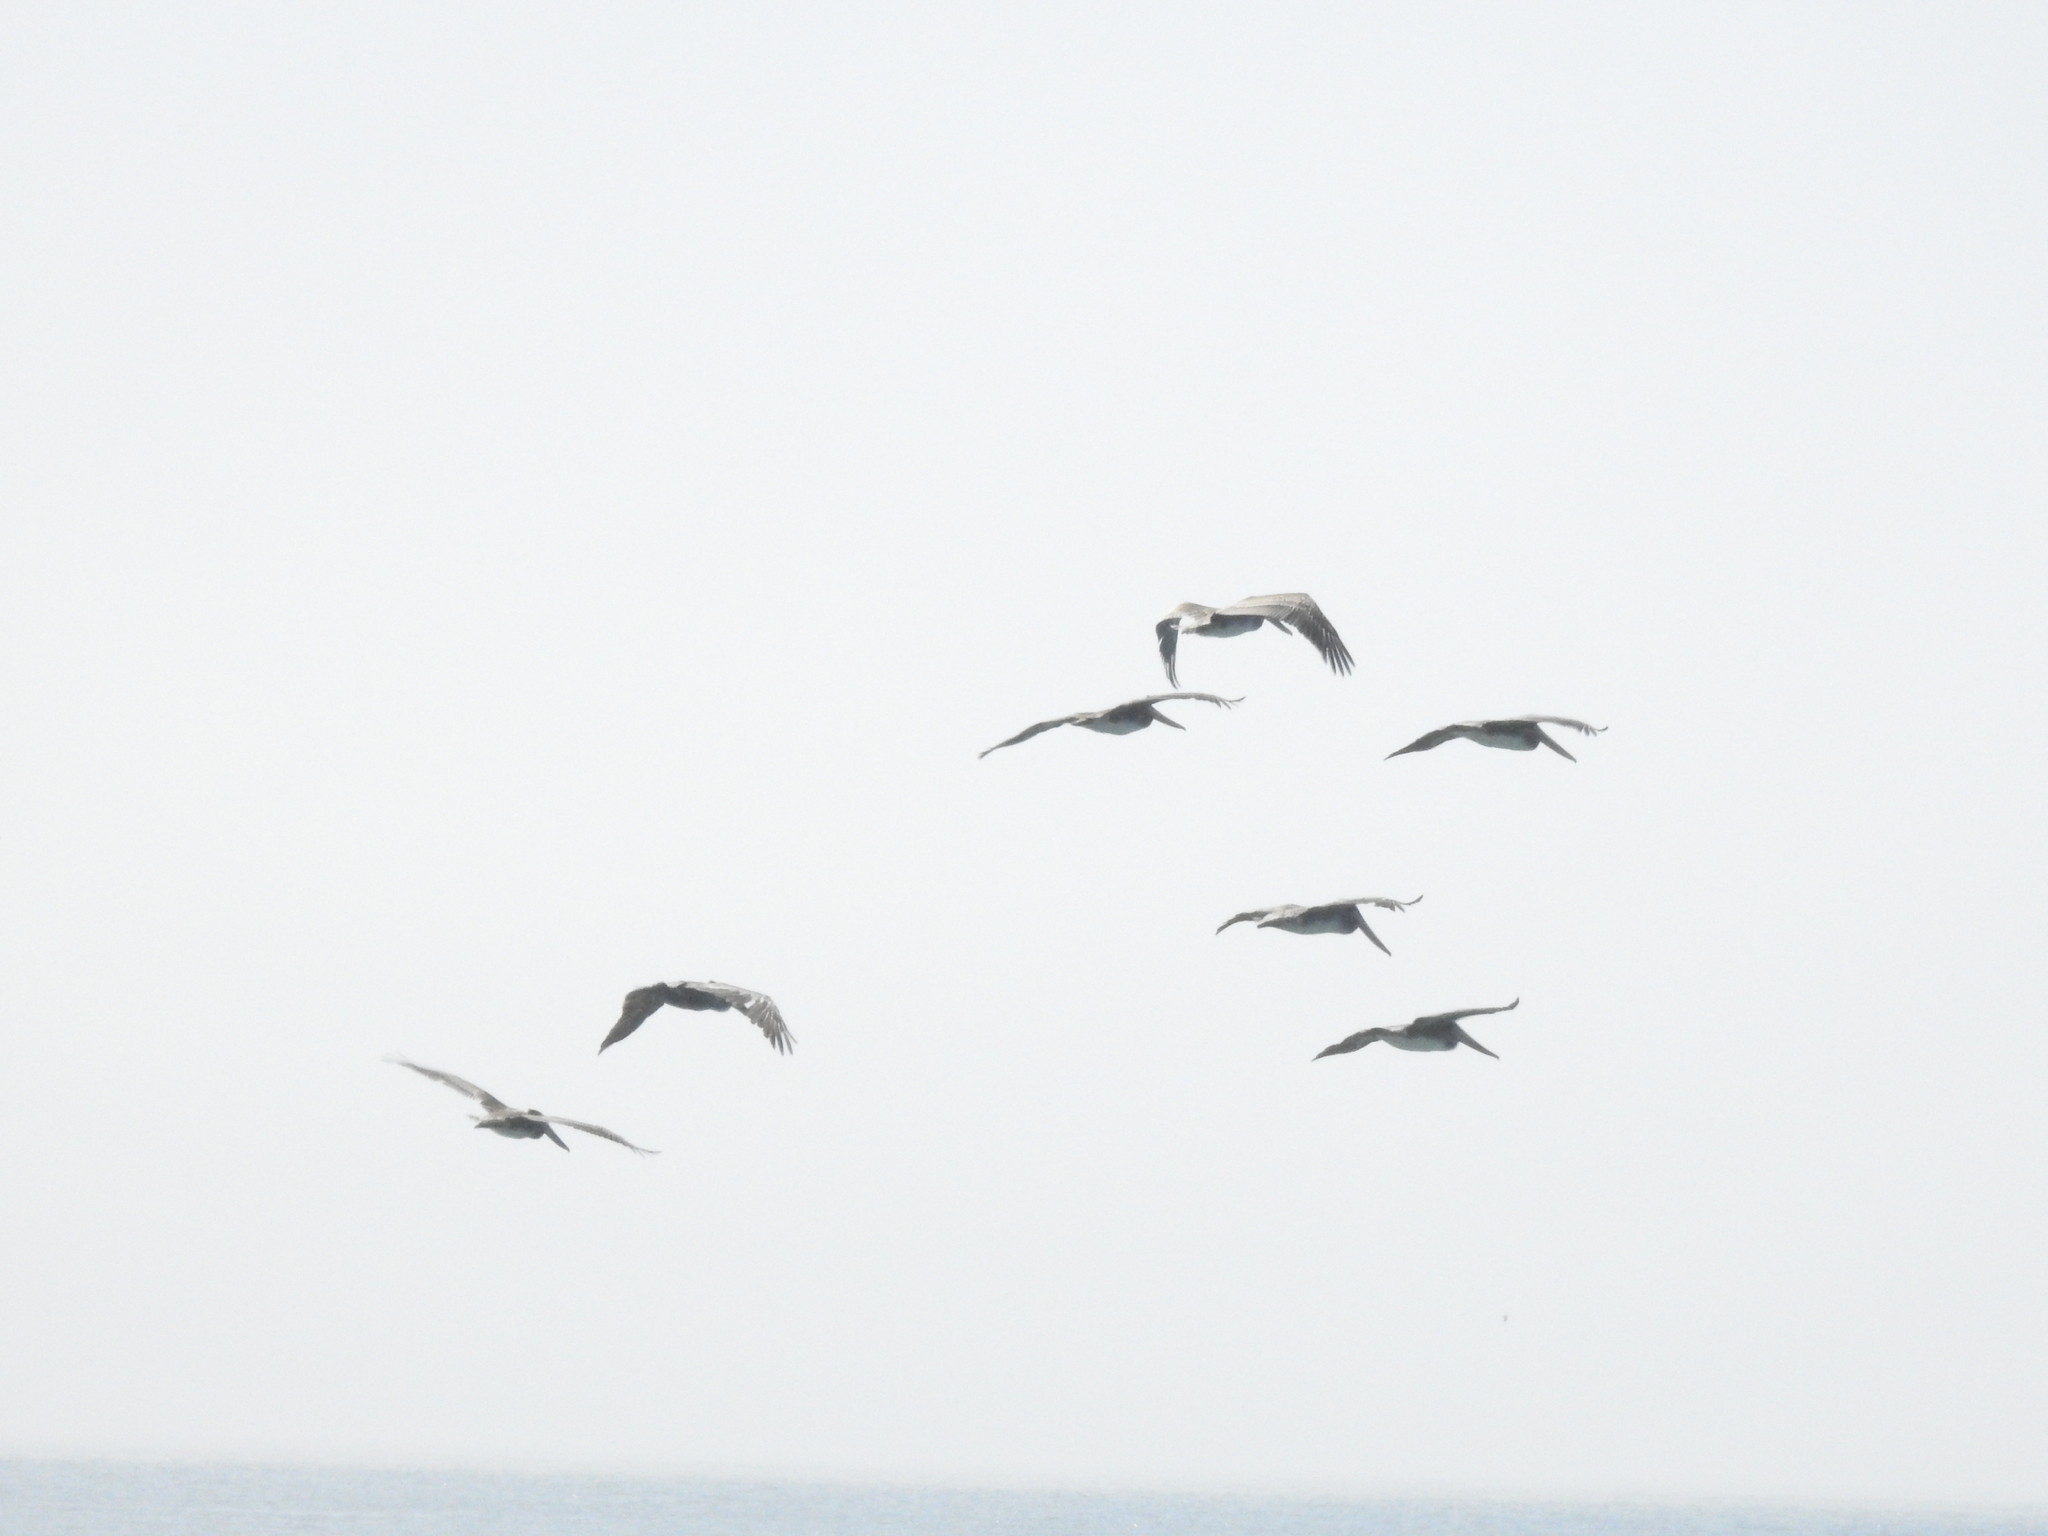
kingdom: Animalia
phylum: Chordata
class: Aves
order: Pelecaniformes
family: Pelecanidae
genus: Pelecanus
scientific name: Pelecanus occidentalis
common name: Brown pelican
